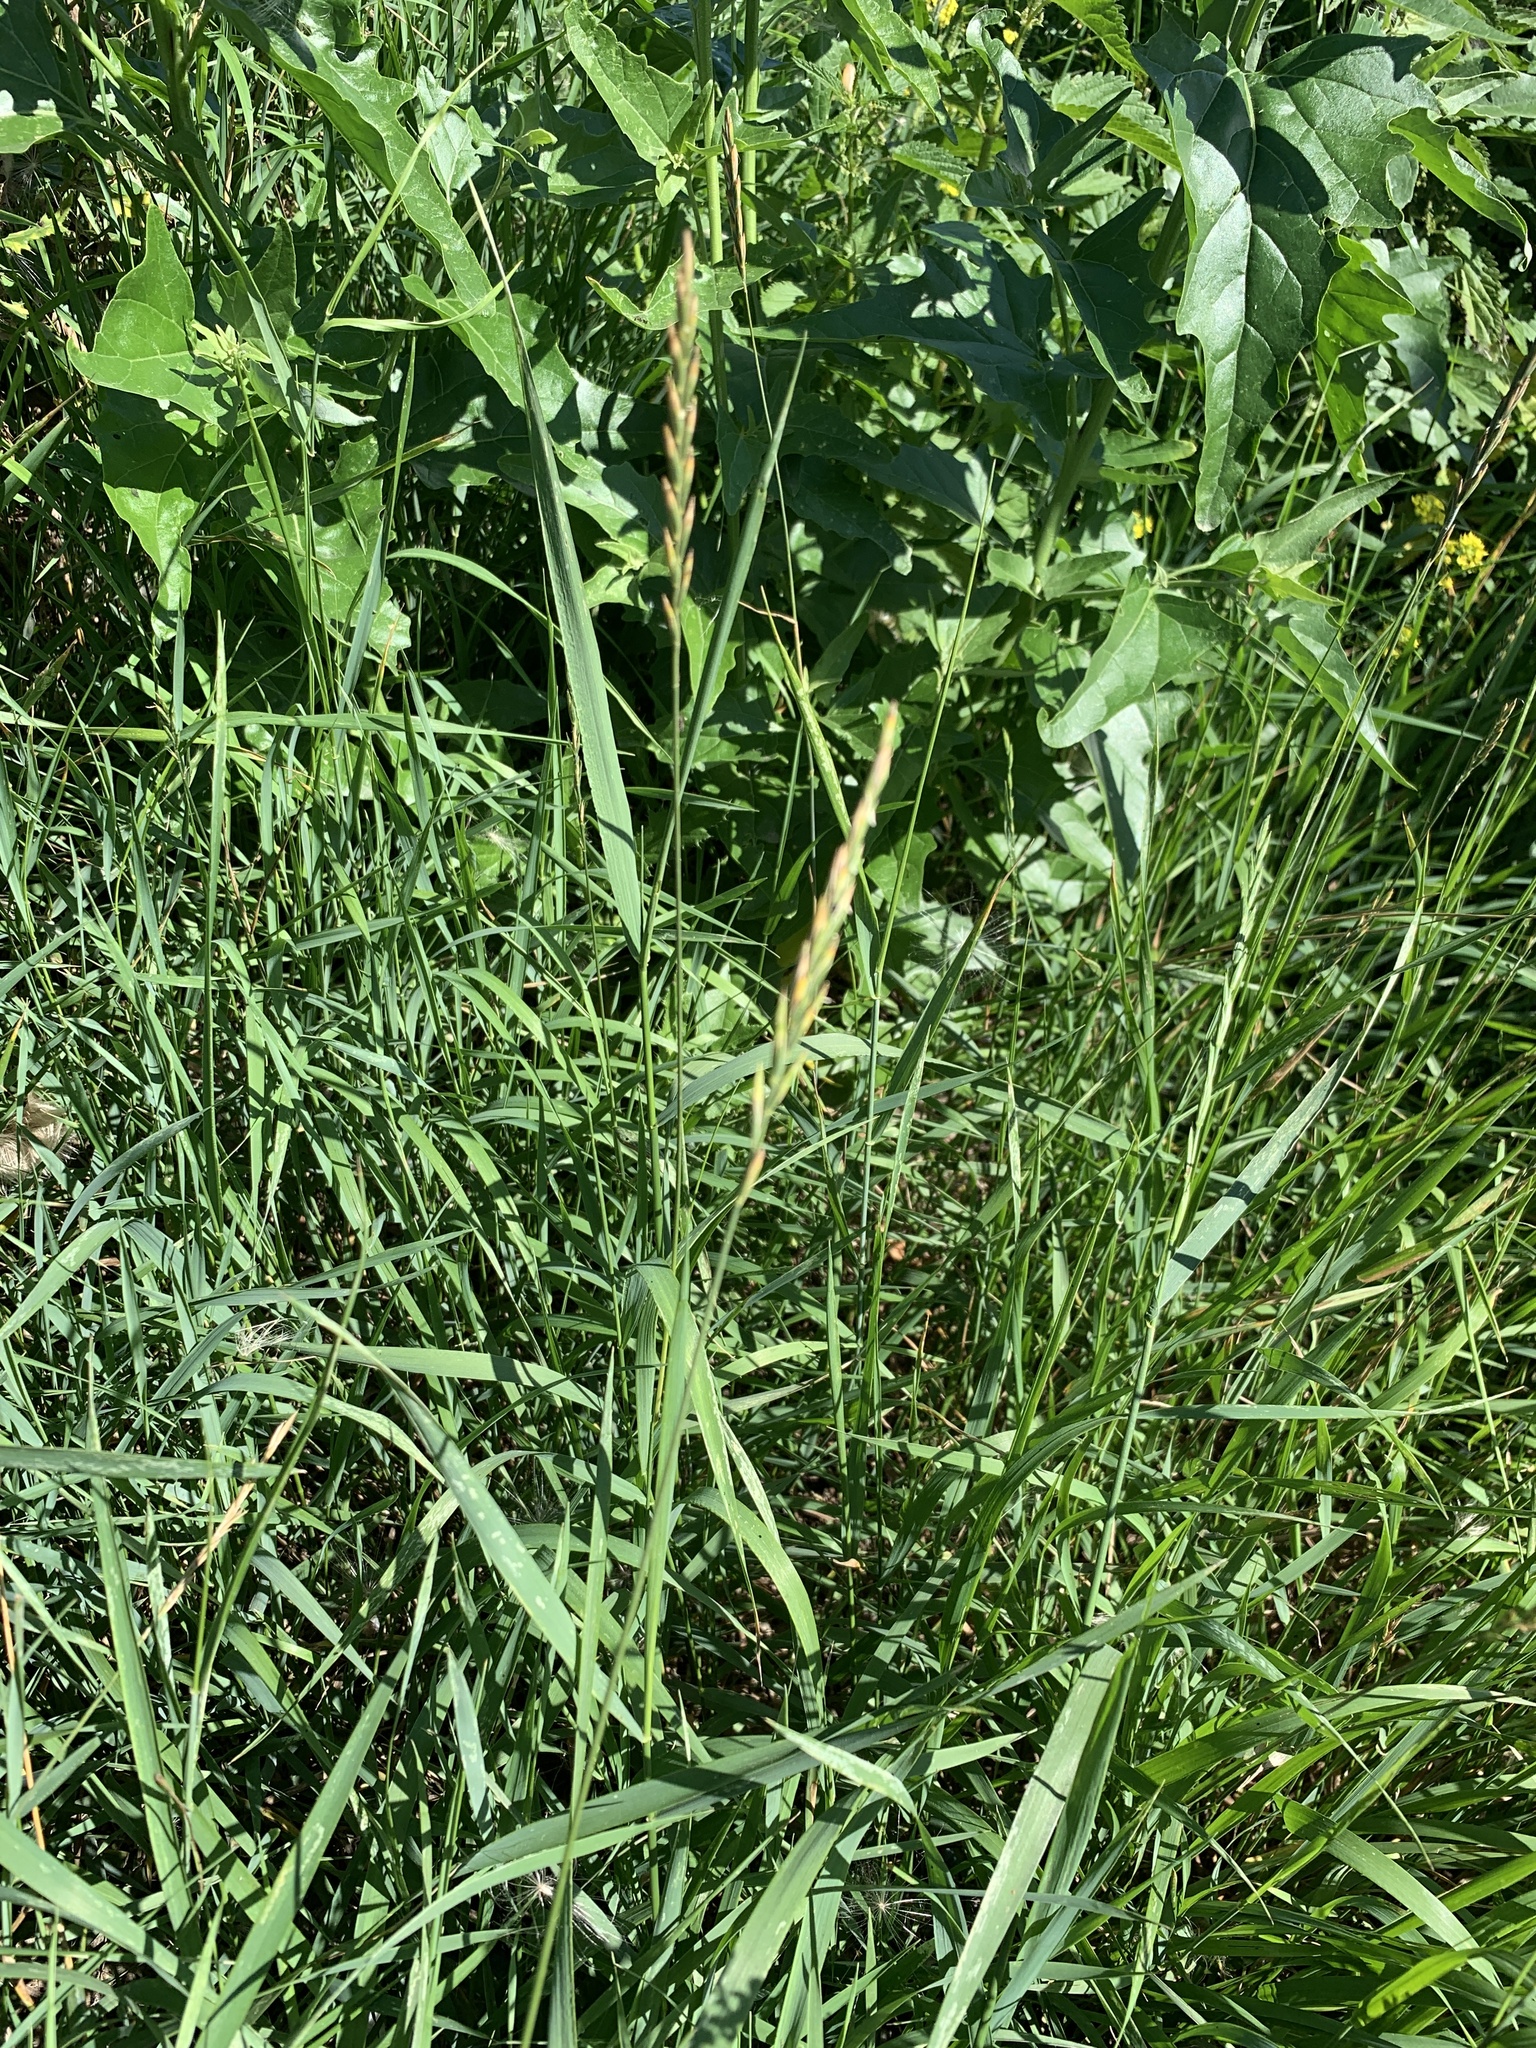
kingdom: Plantae
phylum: Tracheophyta
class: Liliopsida
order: Poales
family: Poaceae
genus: Elymus
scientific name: Elymus repens
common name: Quackgrass
